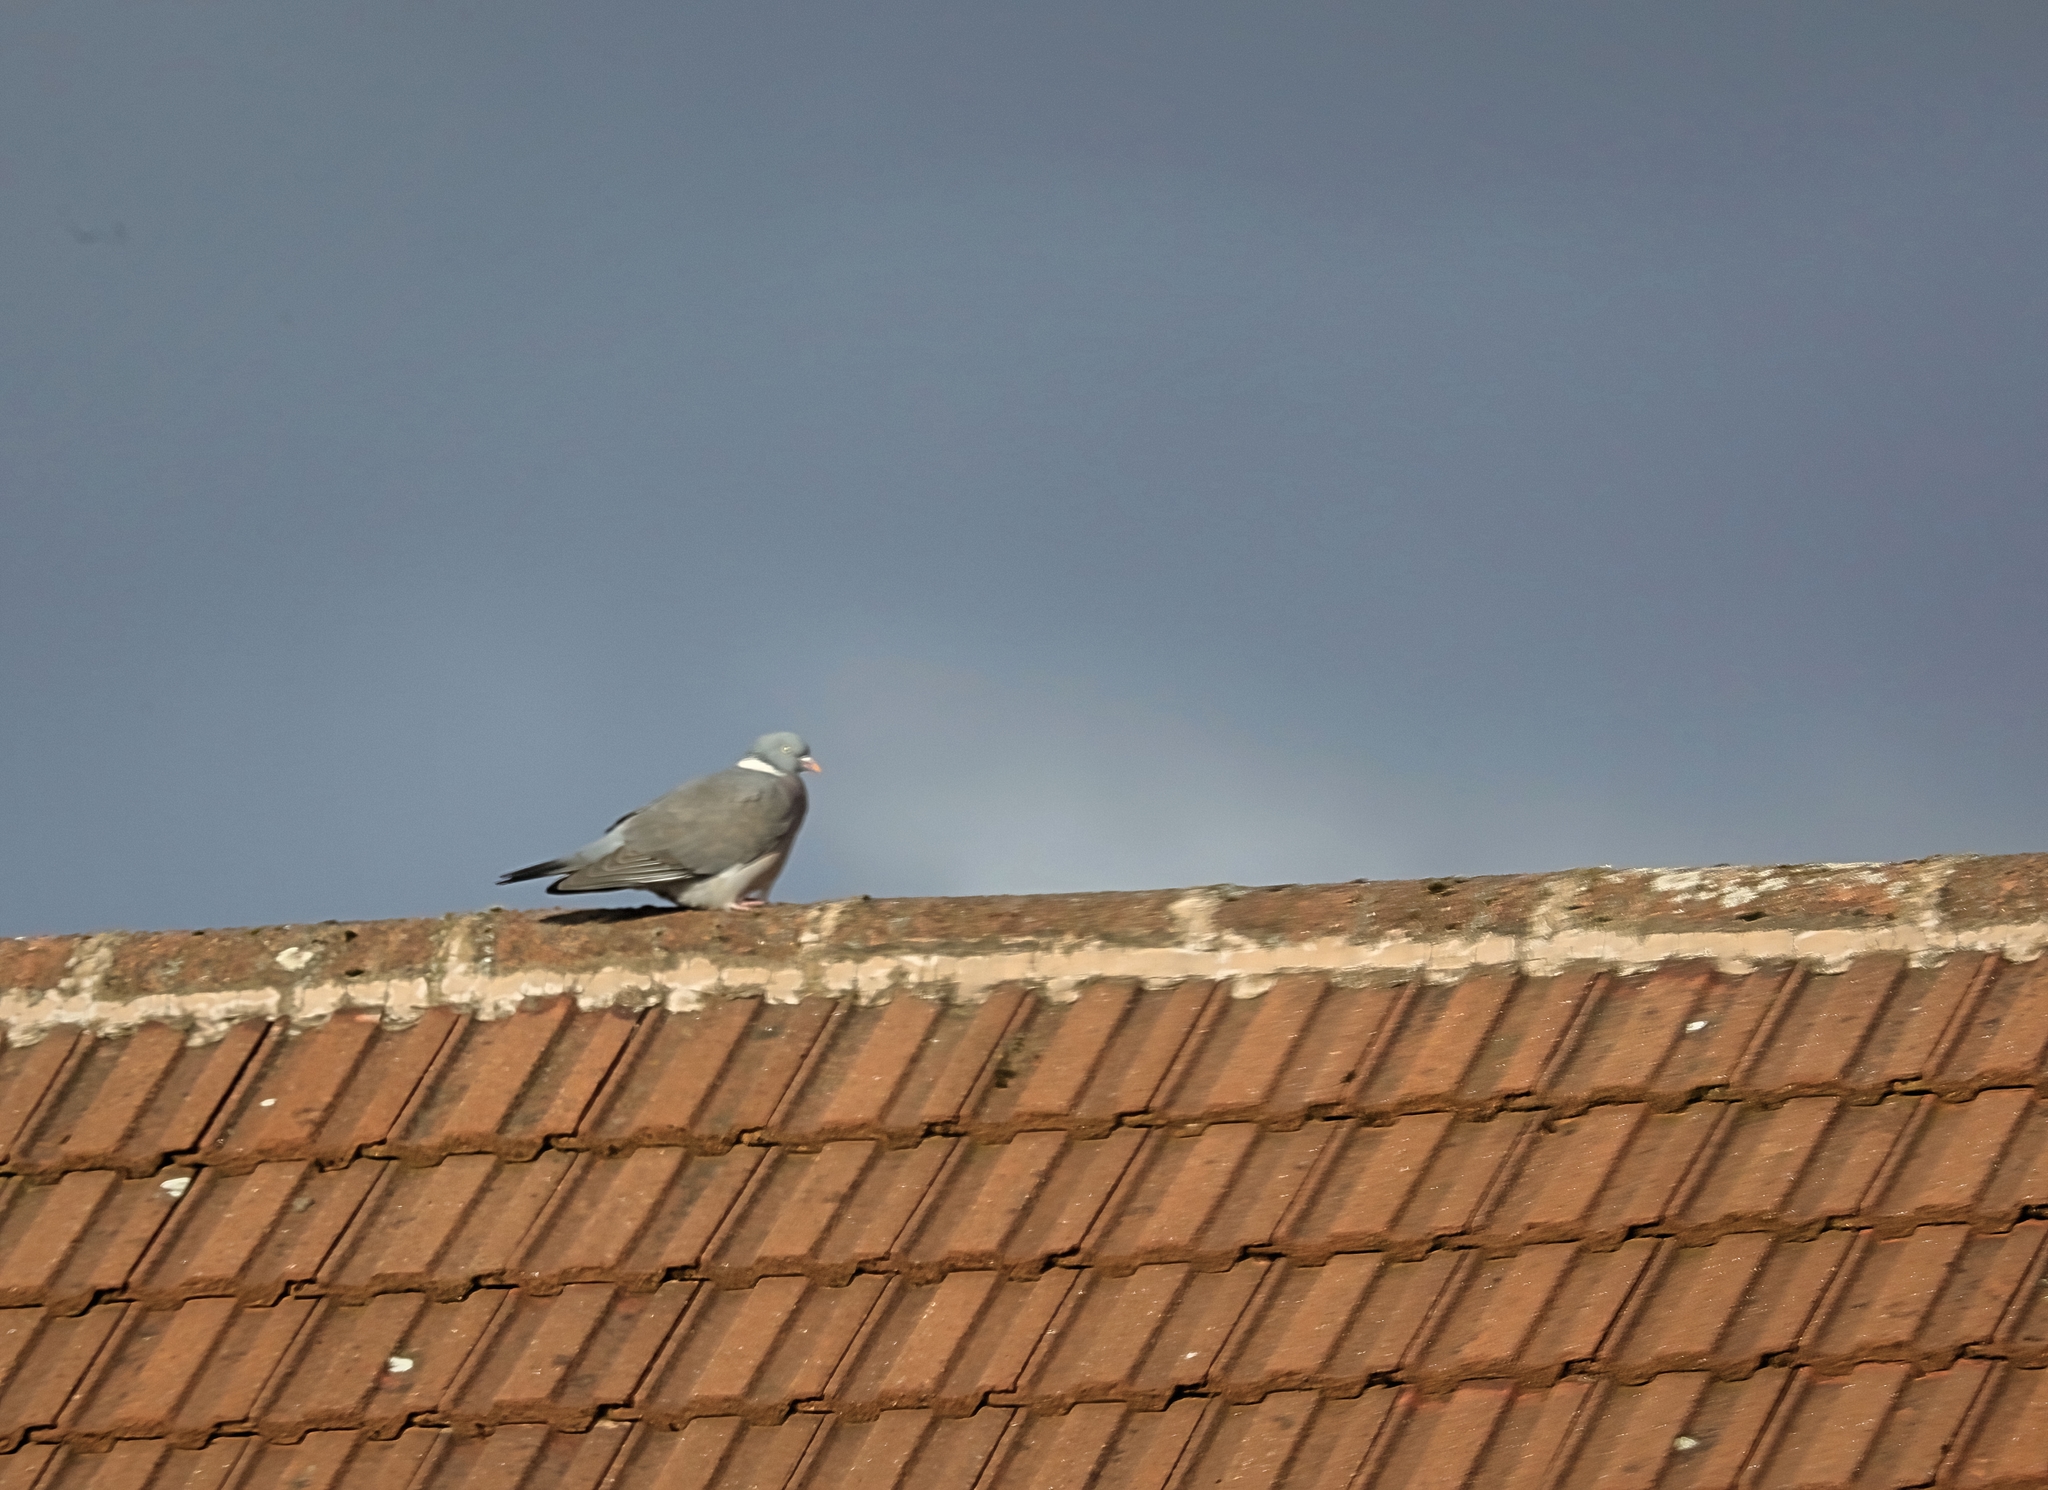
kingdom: Animalia
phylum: Chordata
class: Aves
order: Columbiformes
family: Columbidae
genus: Columba
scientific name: Columba palumbus
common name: Common wood pigeon
